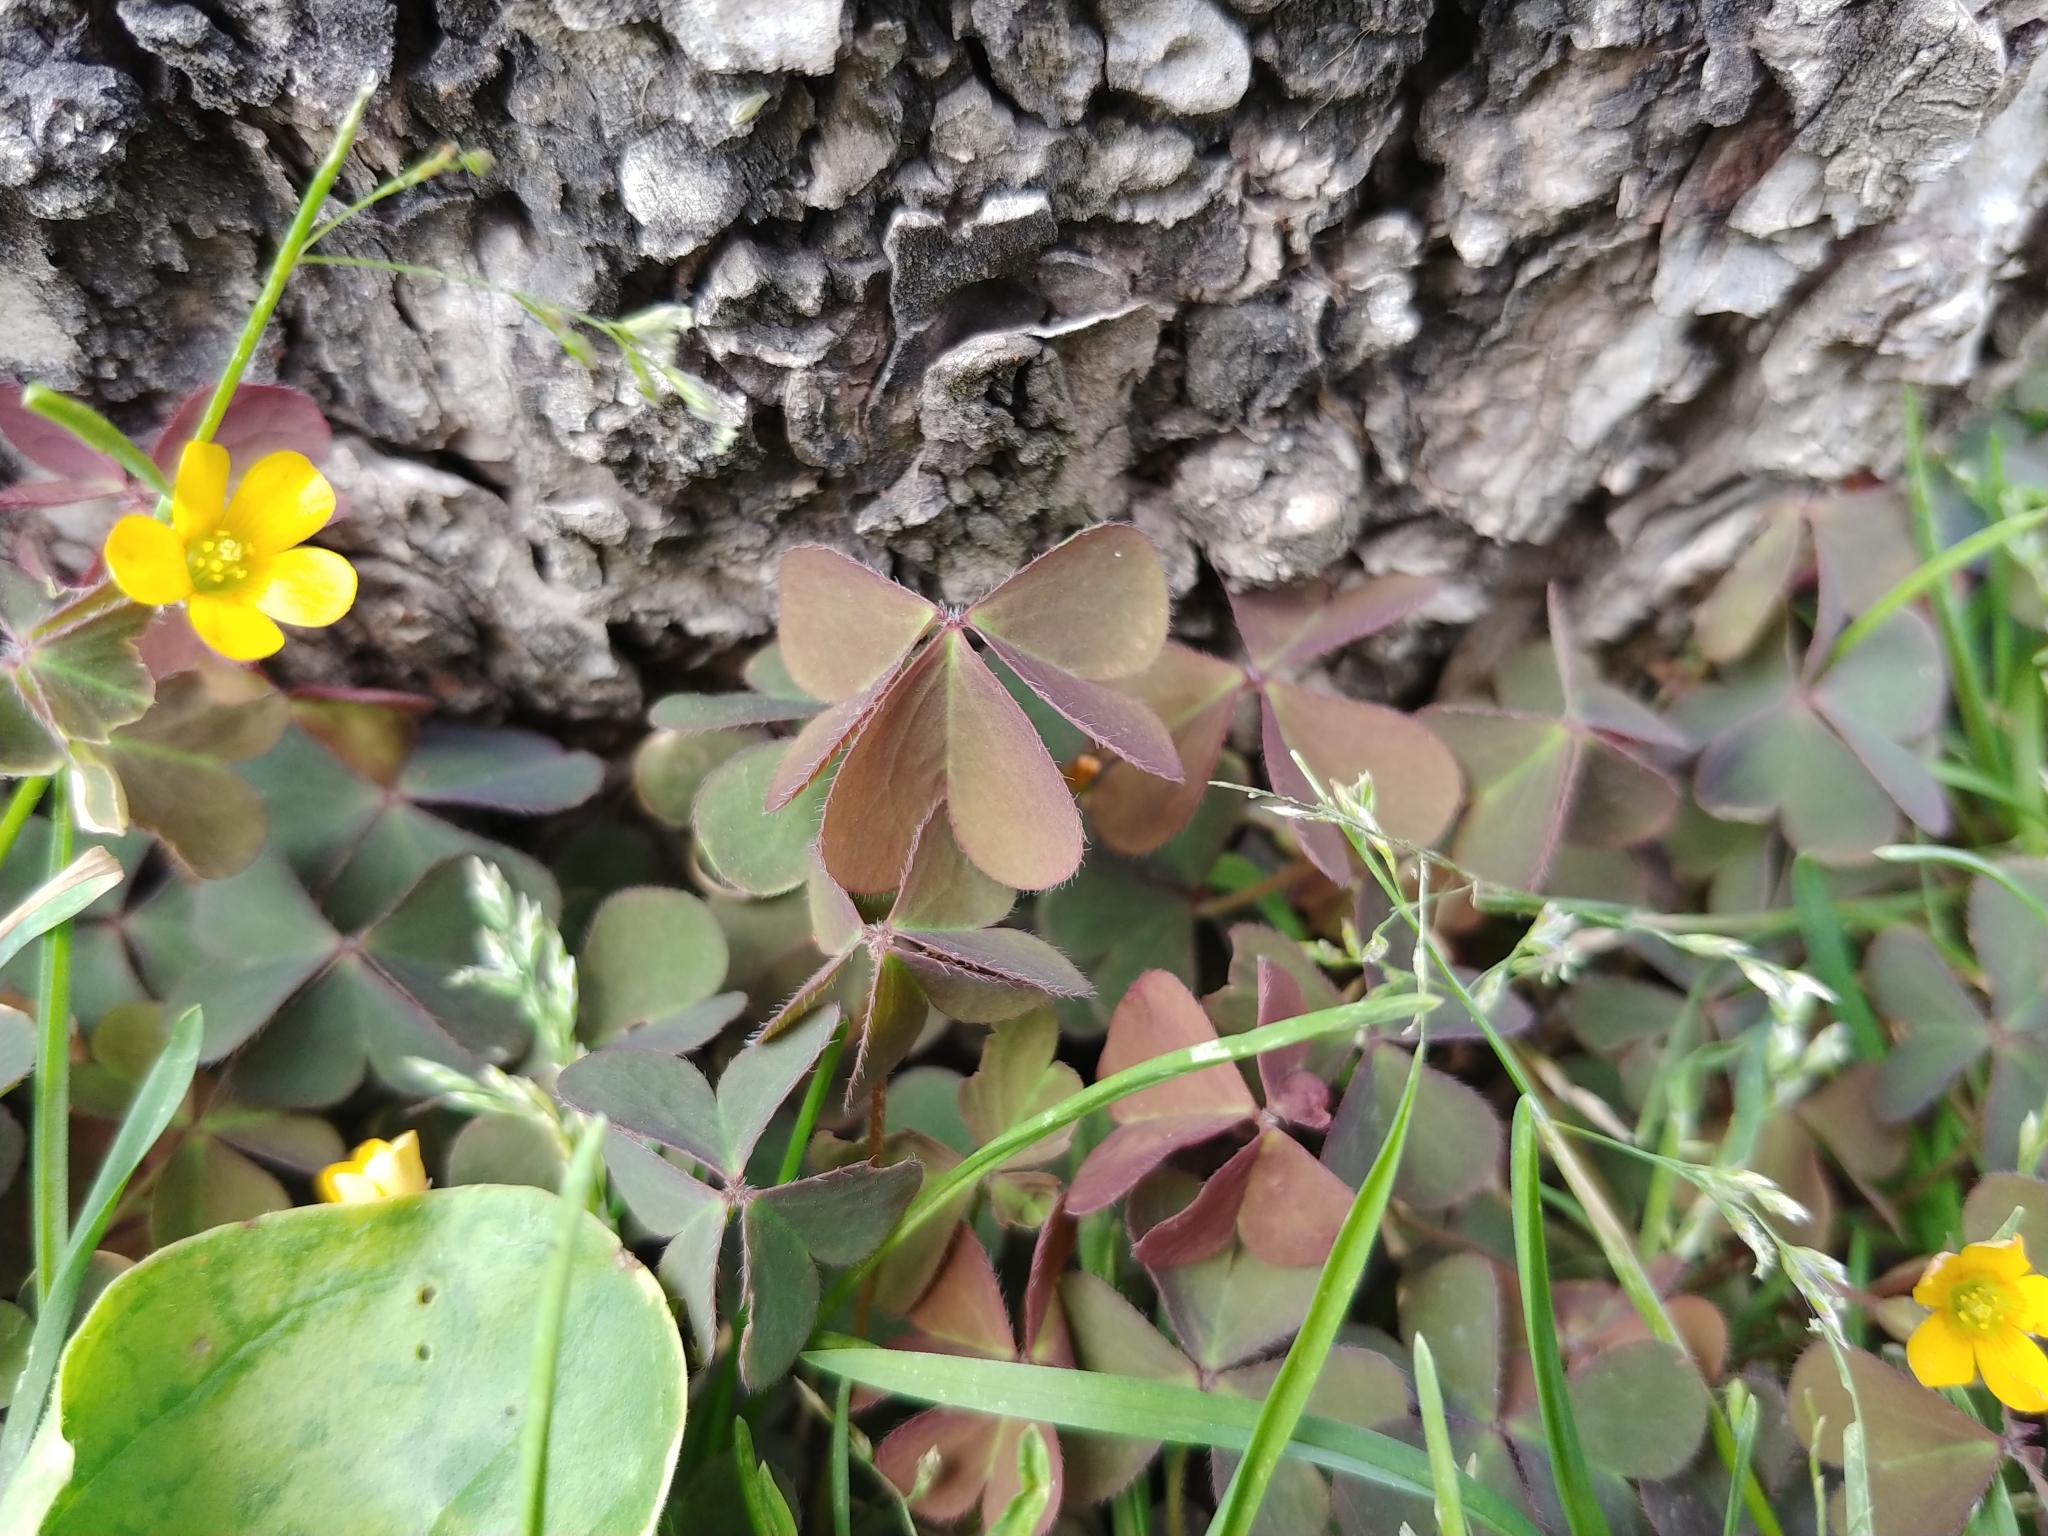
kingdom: Plantae
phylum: Tracheophyta
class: Magnoliopsida
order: Oxalidales
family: Oxalidaceae
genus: Oxalis
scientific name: Oxalis corniculata
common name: Procumbent yellow-sorrel
